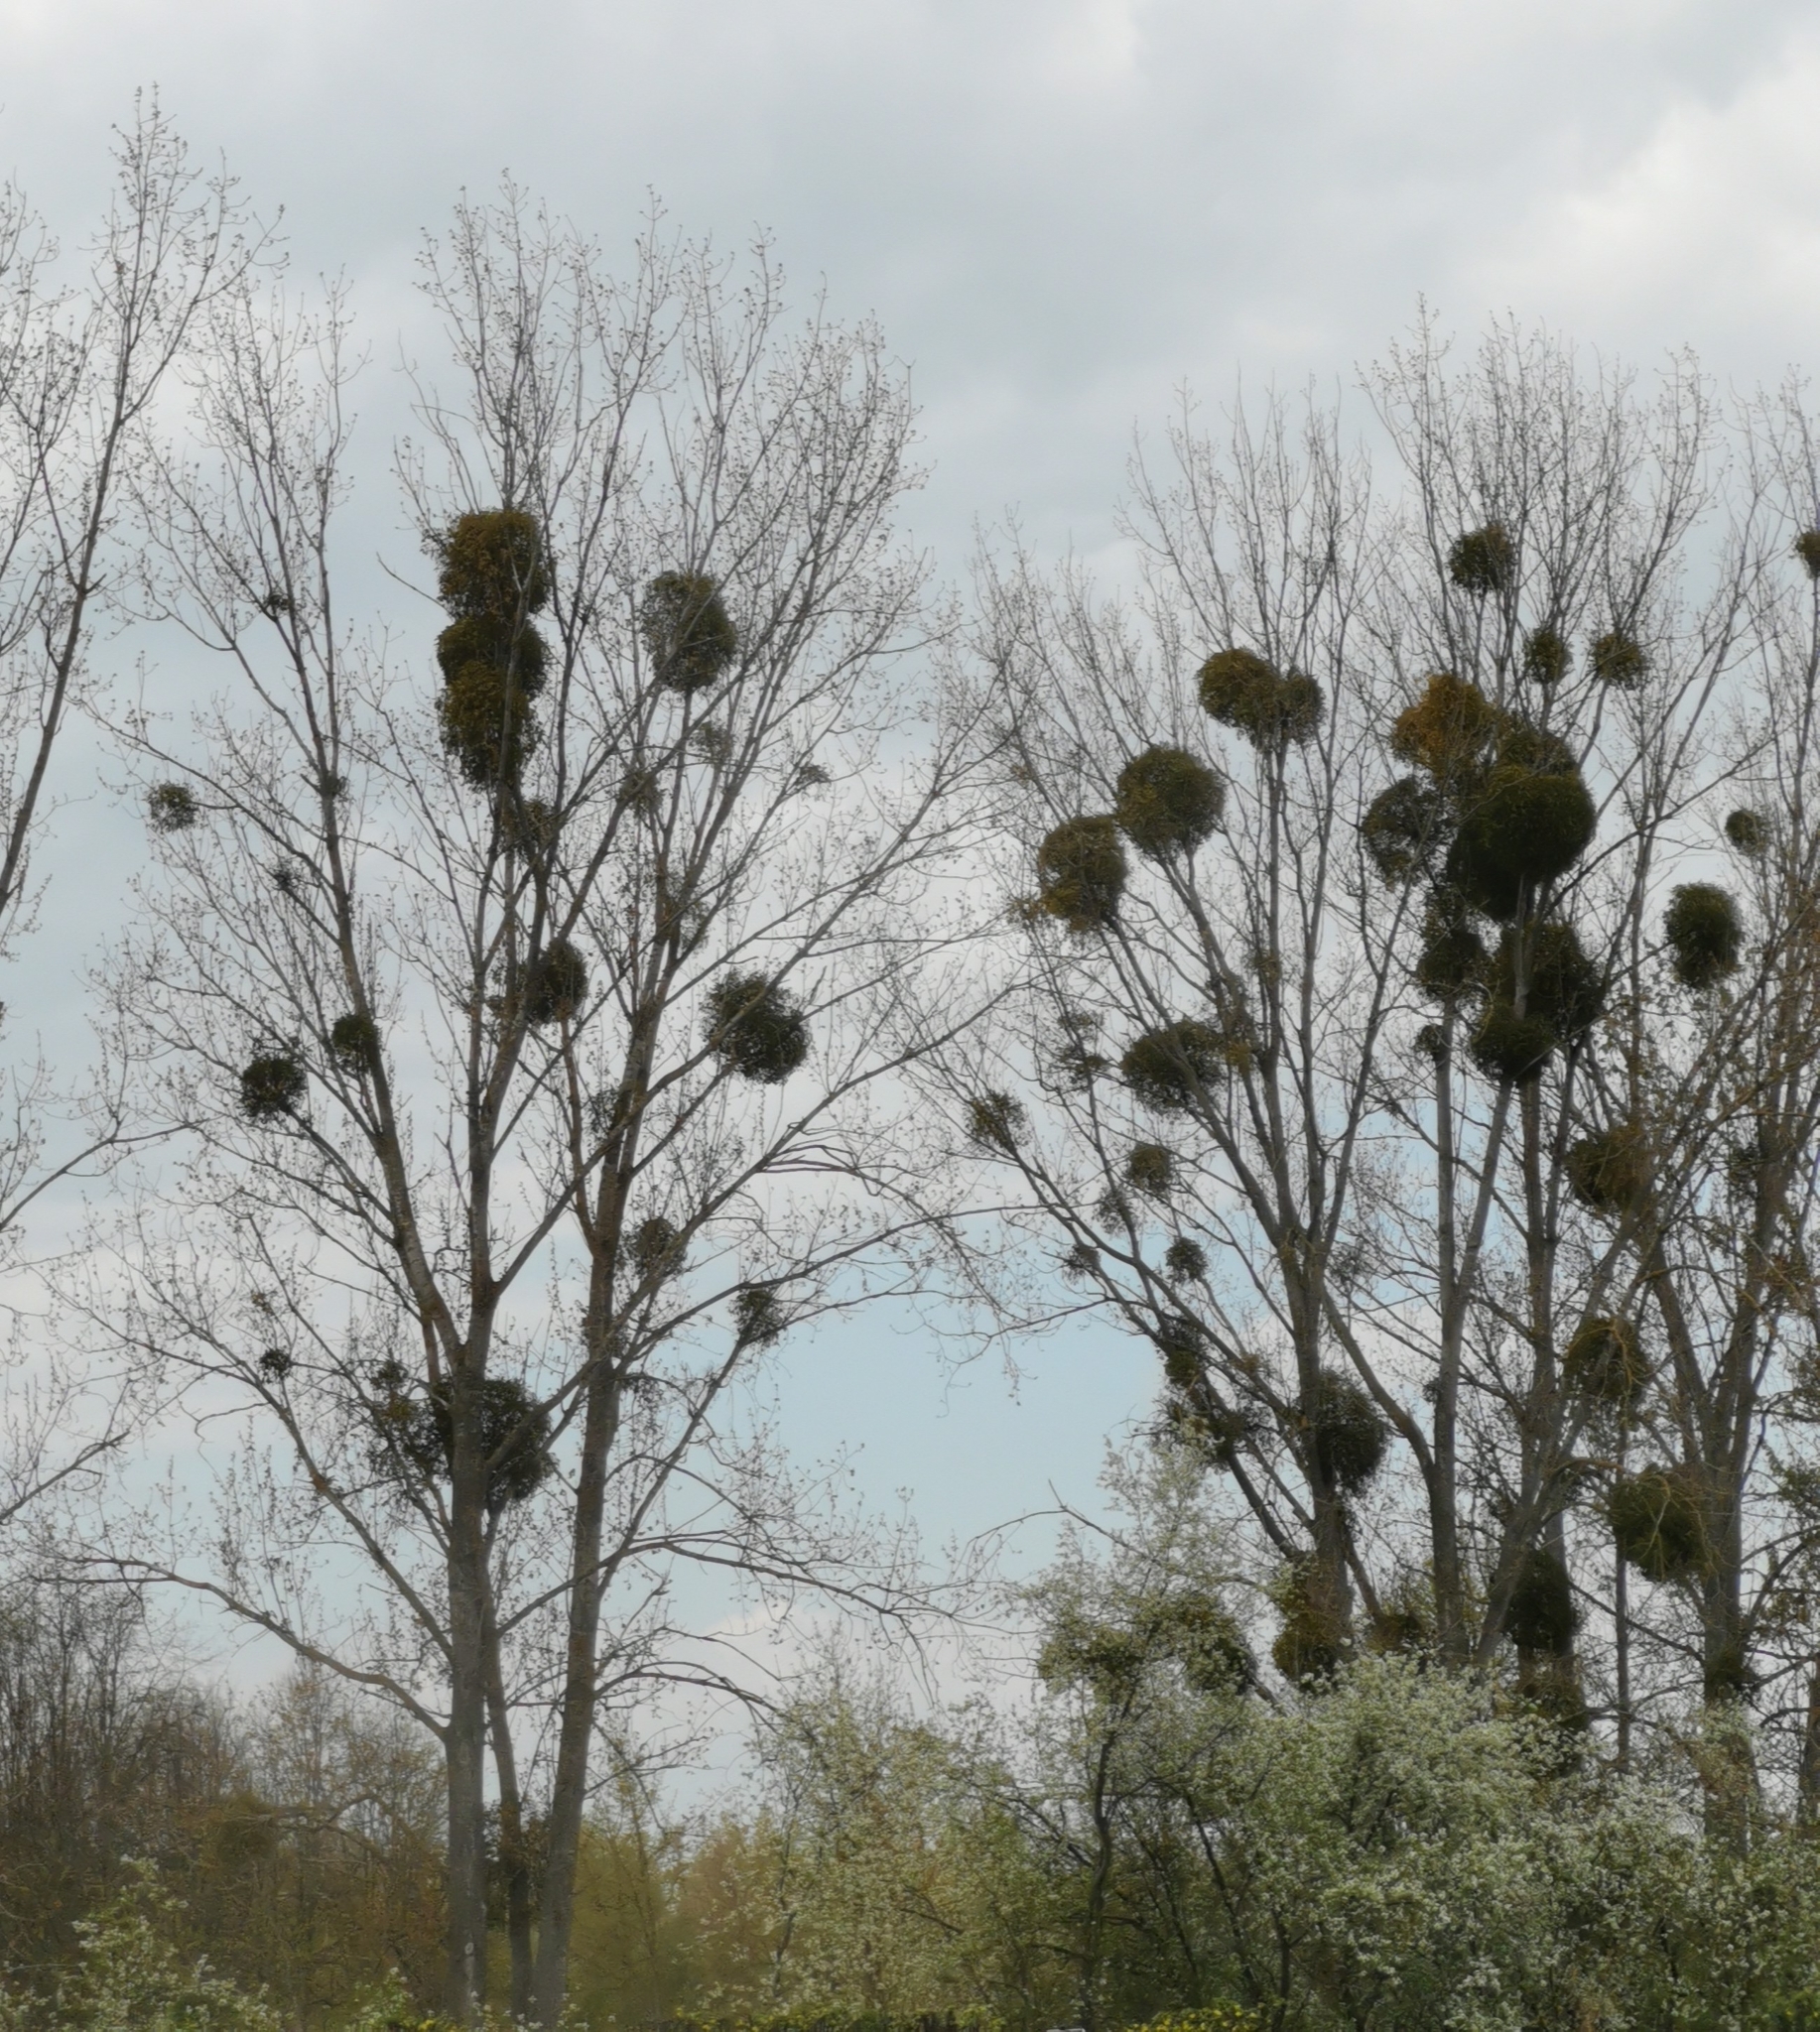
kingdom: Plantae
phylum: Tracheophyta
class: Magnoliopsida
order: Santalales
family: Viscaceae
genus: Viscum
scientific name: Viscum album
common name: Mistletoe
